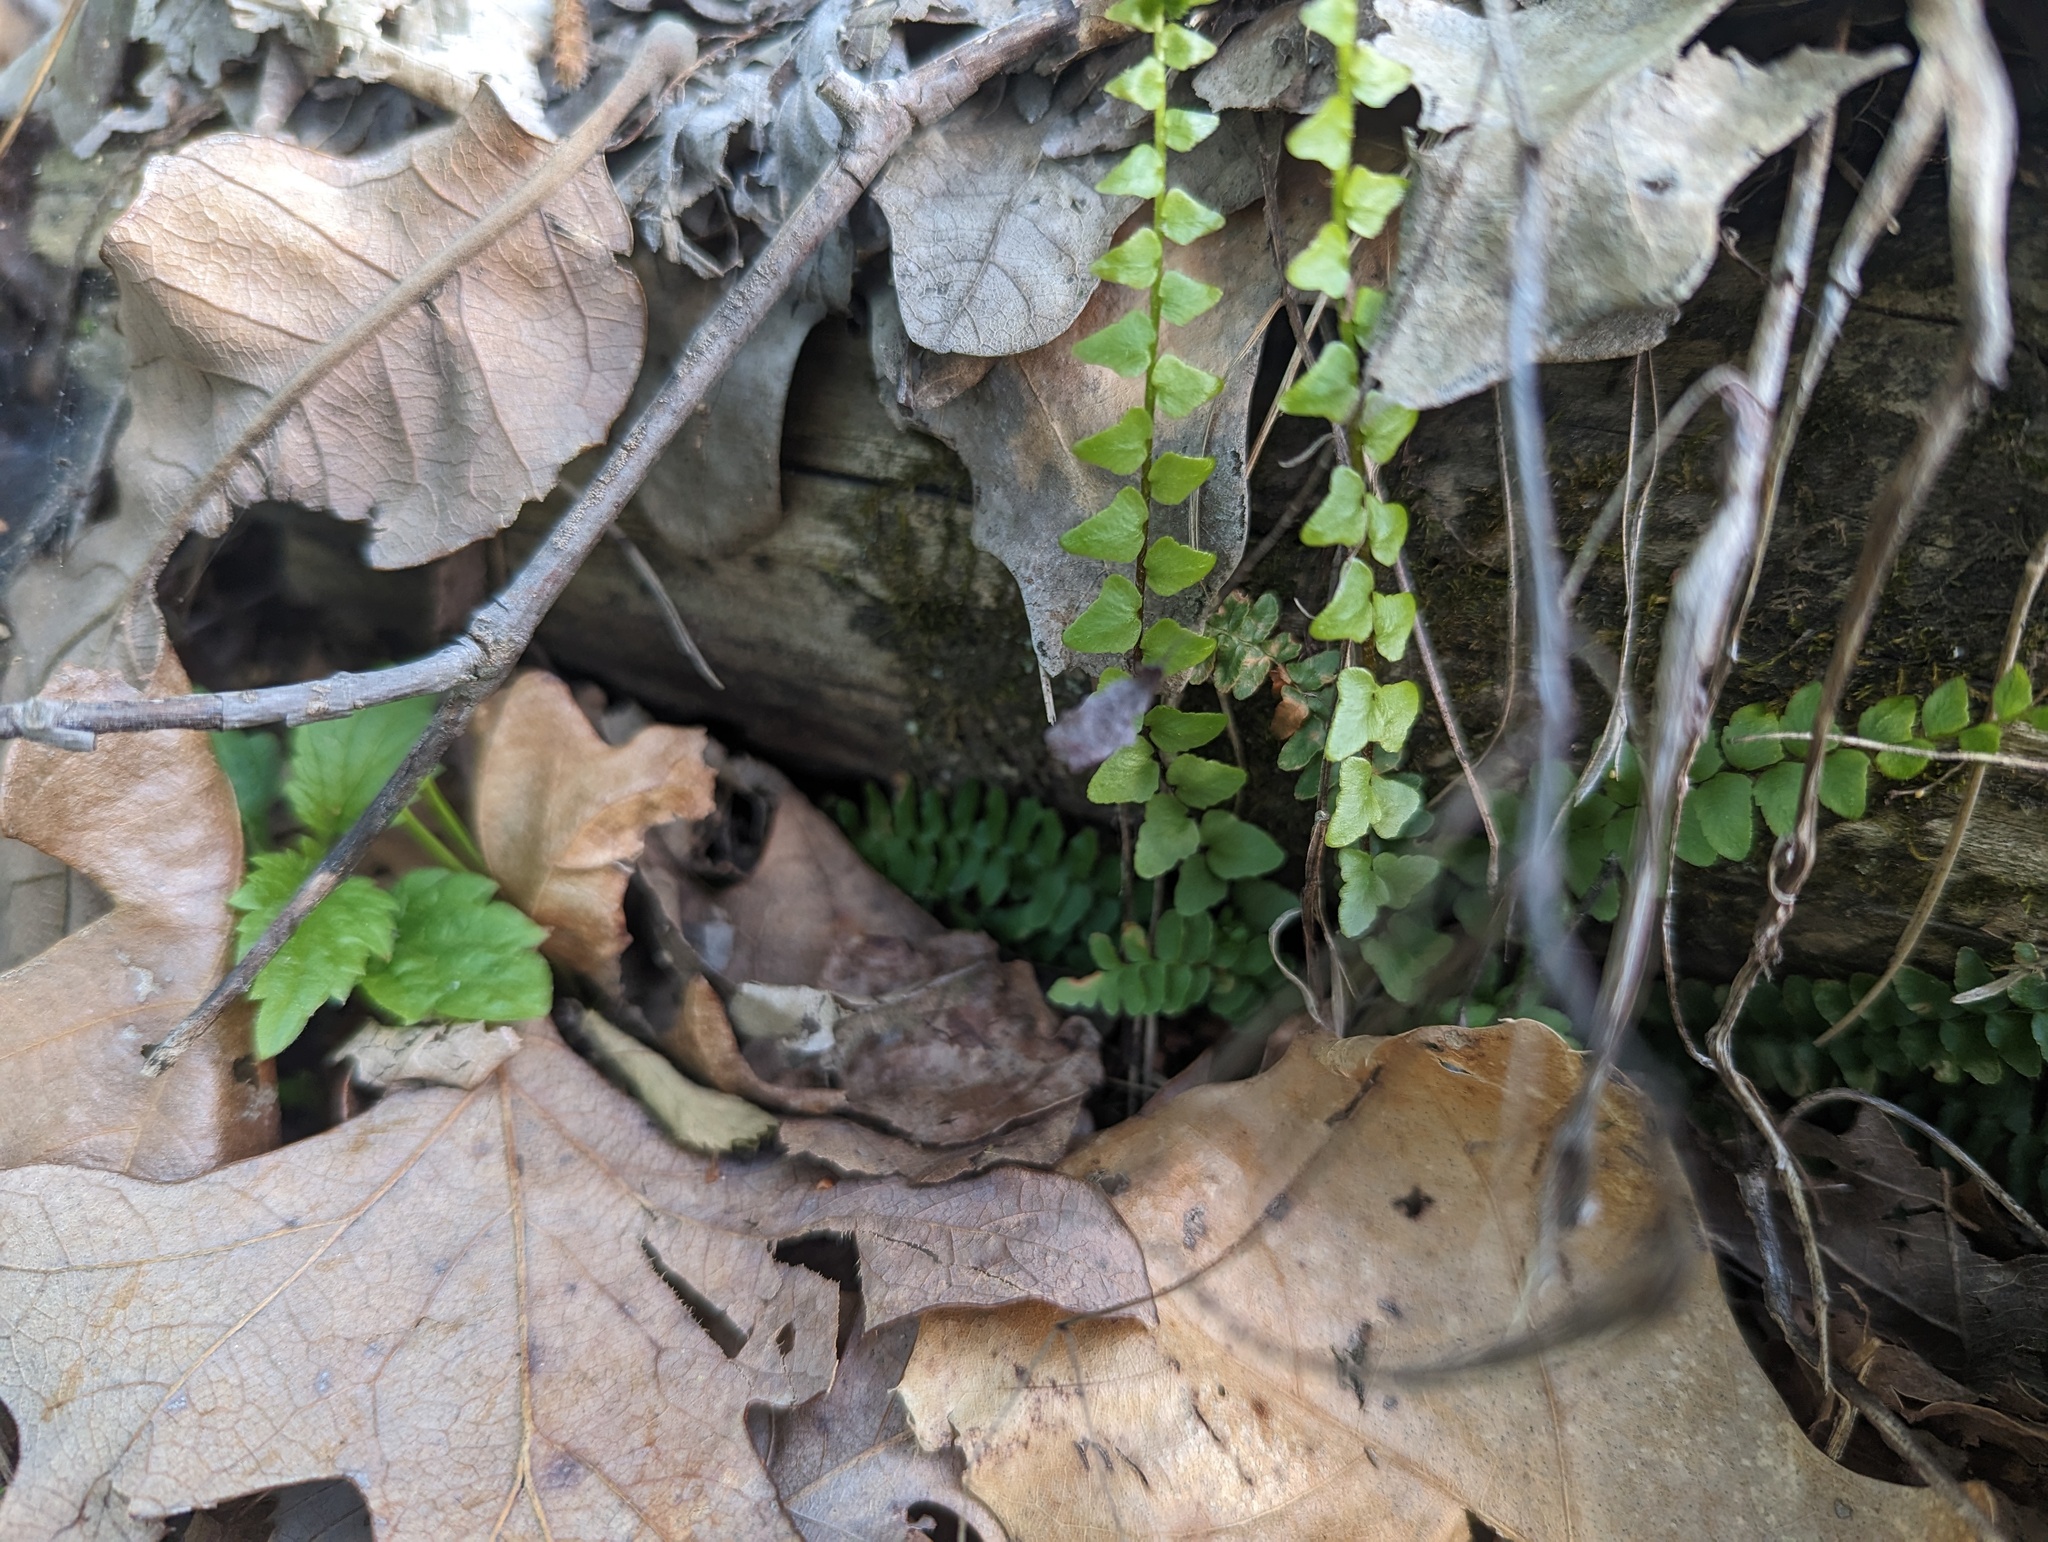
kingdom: Plantae
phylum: Tracheophyta
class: Polypodiopsida
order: Polypodiales
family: Aspleniaceae
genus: Asplenium
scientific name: Asplenium platyneuron
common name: Ebony spleenwort
